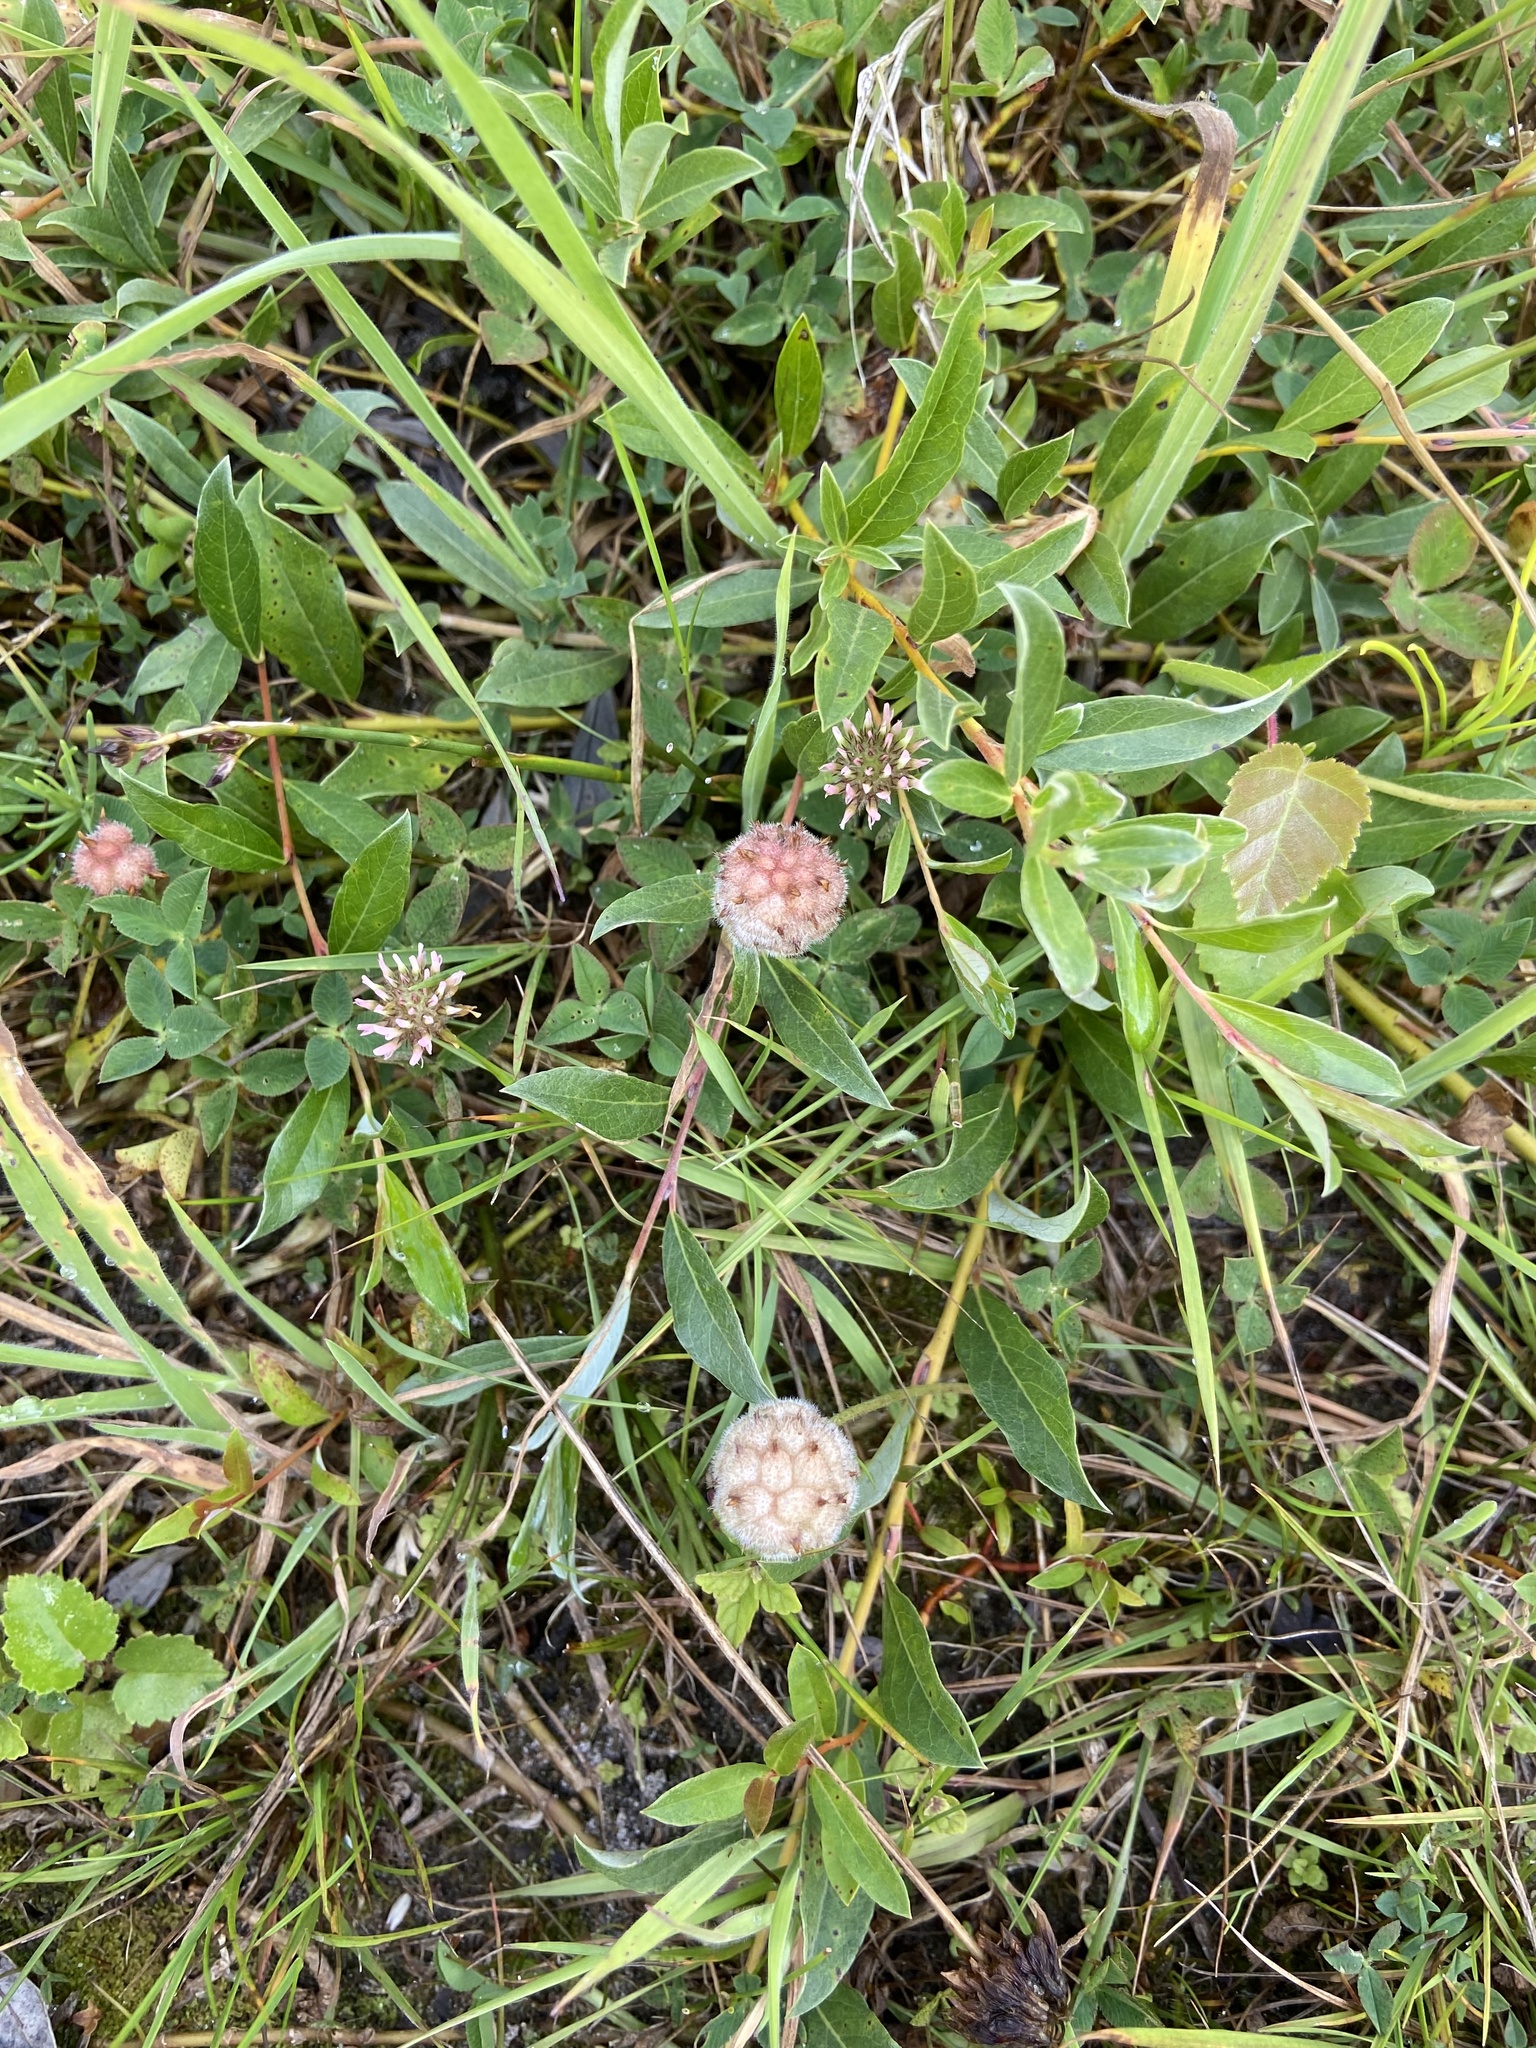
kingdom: Plantae
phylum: Tracheophyta
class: Magnoliopsida
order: Fabales
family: Fabaceae
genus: Trifolium
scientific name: Trifolium fragiferum
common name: Strawberry clover
